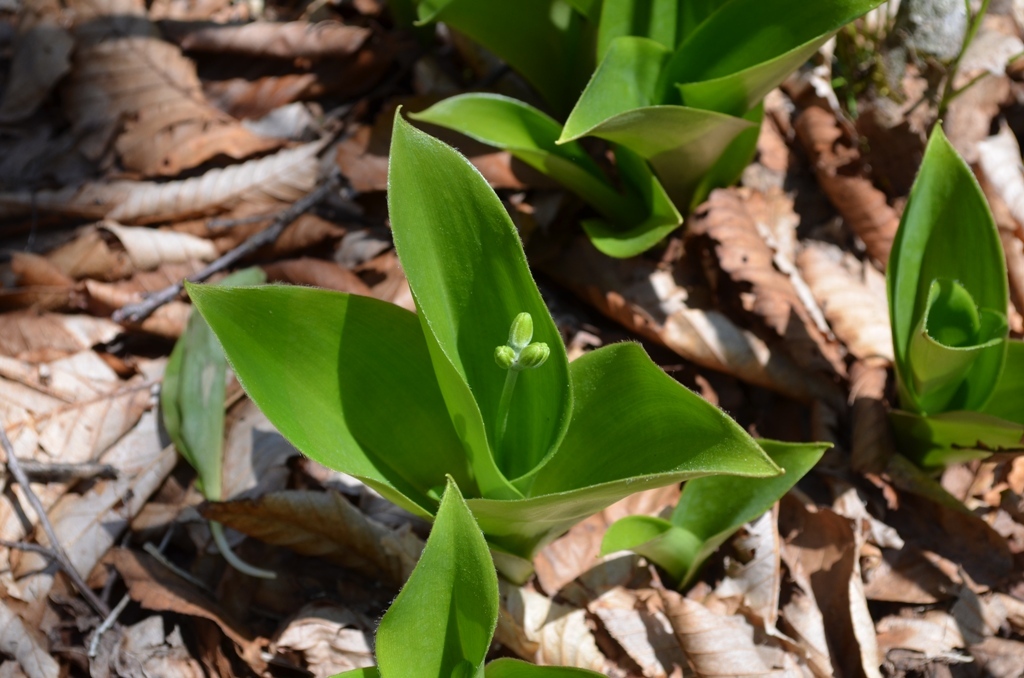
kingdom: Plantae
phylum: Tracheophyta
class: Liliopsida
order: Liliales
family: Liliaceae
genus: Clintonia
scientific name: Clintonia borealis
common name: Yellow clintonia
